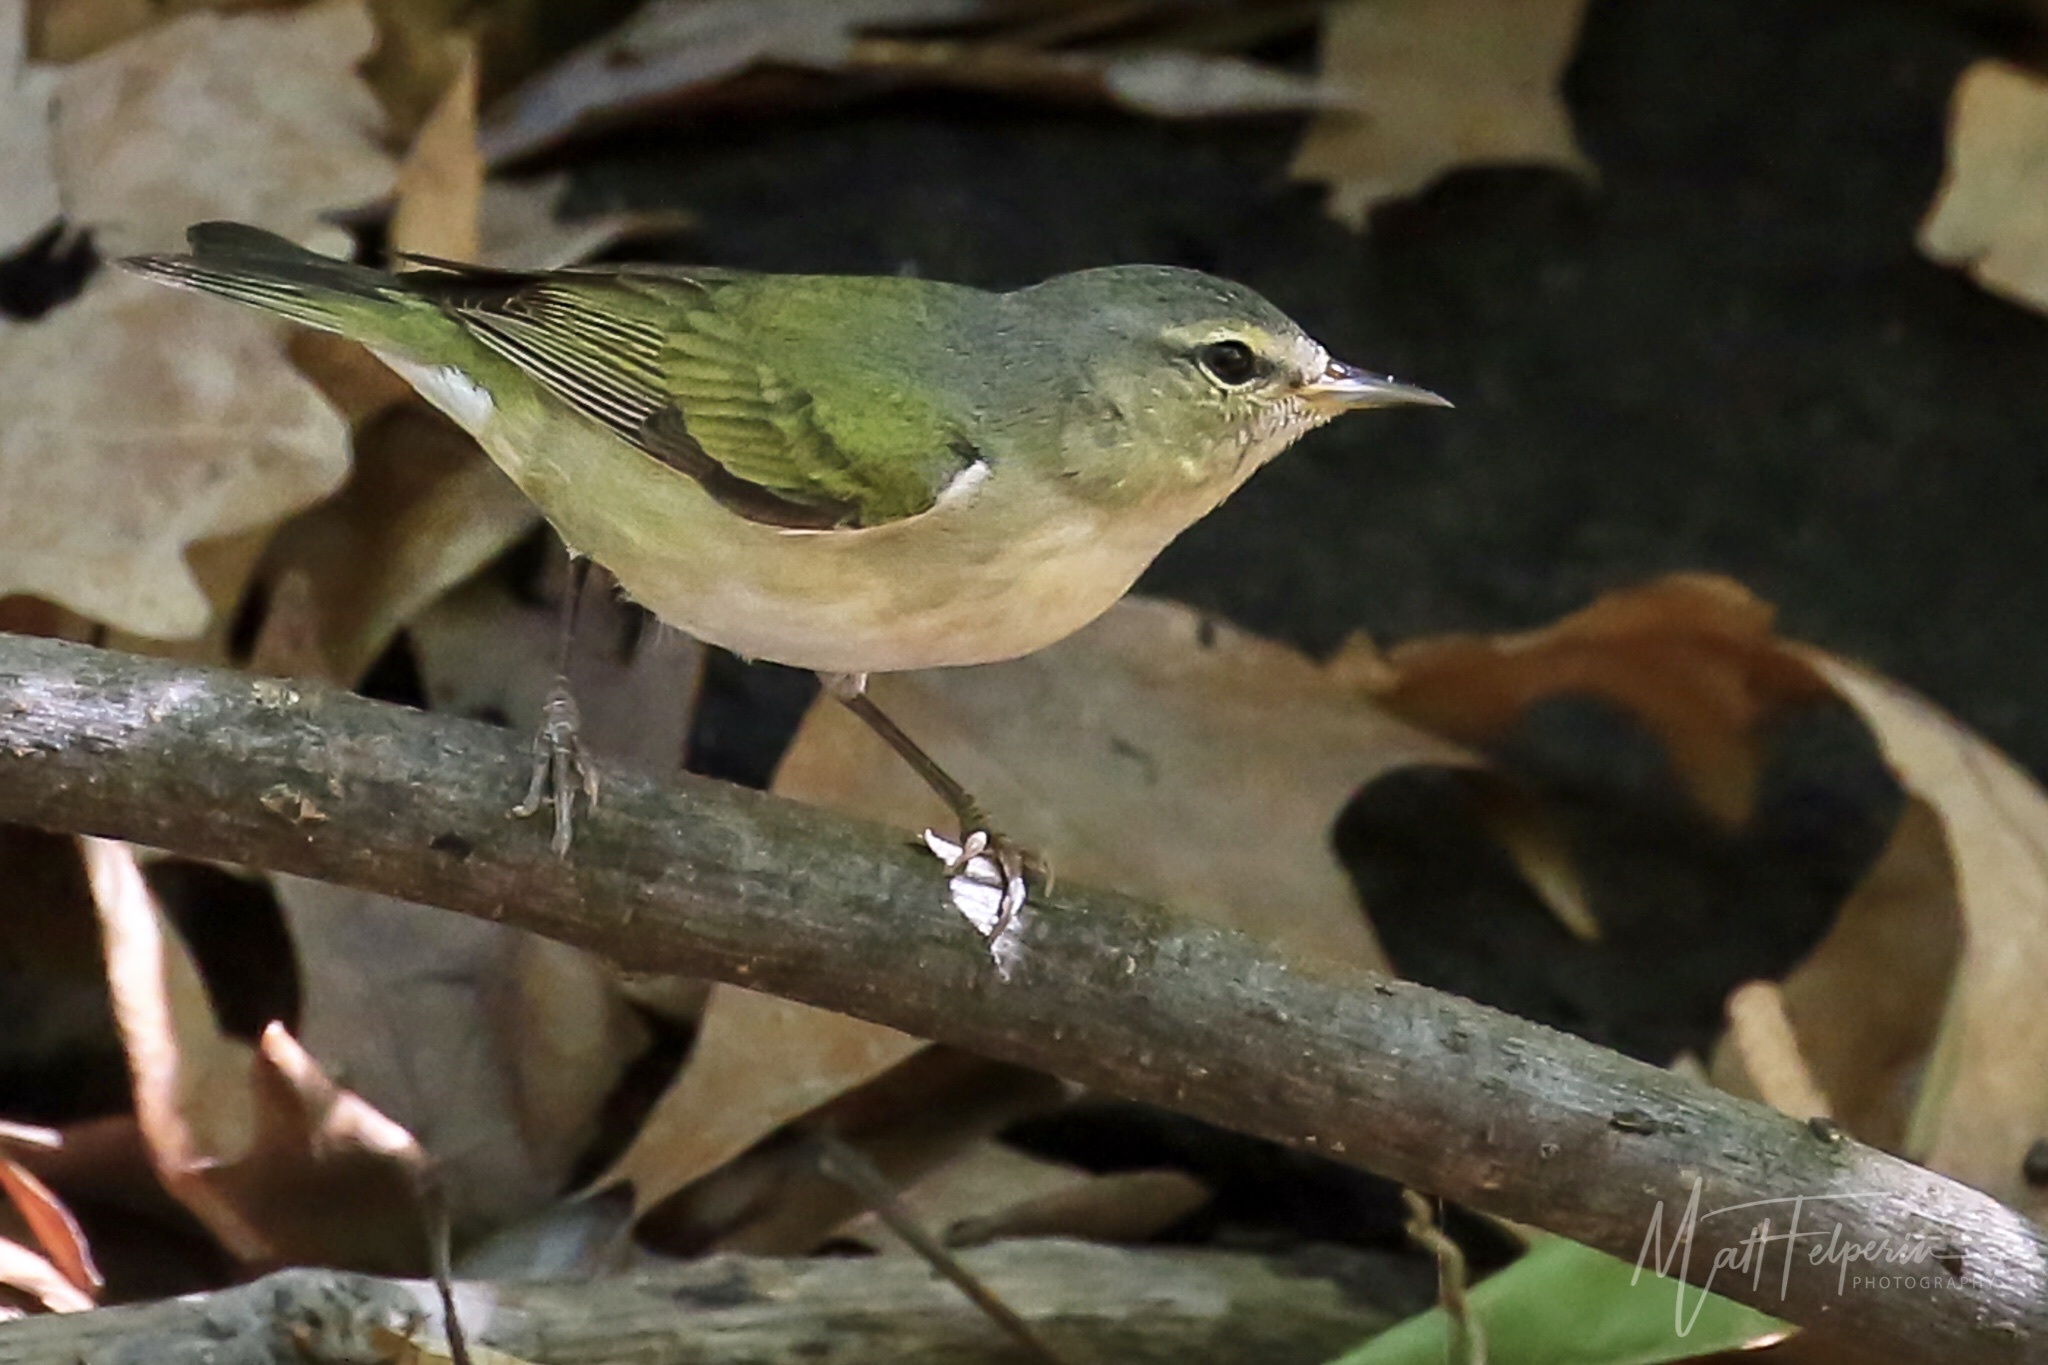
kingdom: Animalia
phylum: Chordata
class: Aves
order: Passeriformes
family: Parulidae
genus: Leiothlypis
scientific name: Leiothlypis peregrina
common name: Tennessee warbler
